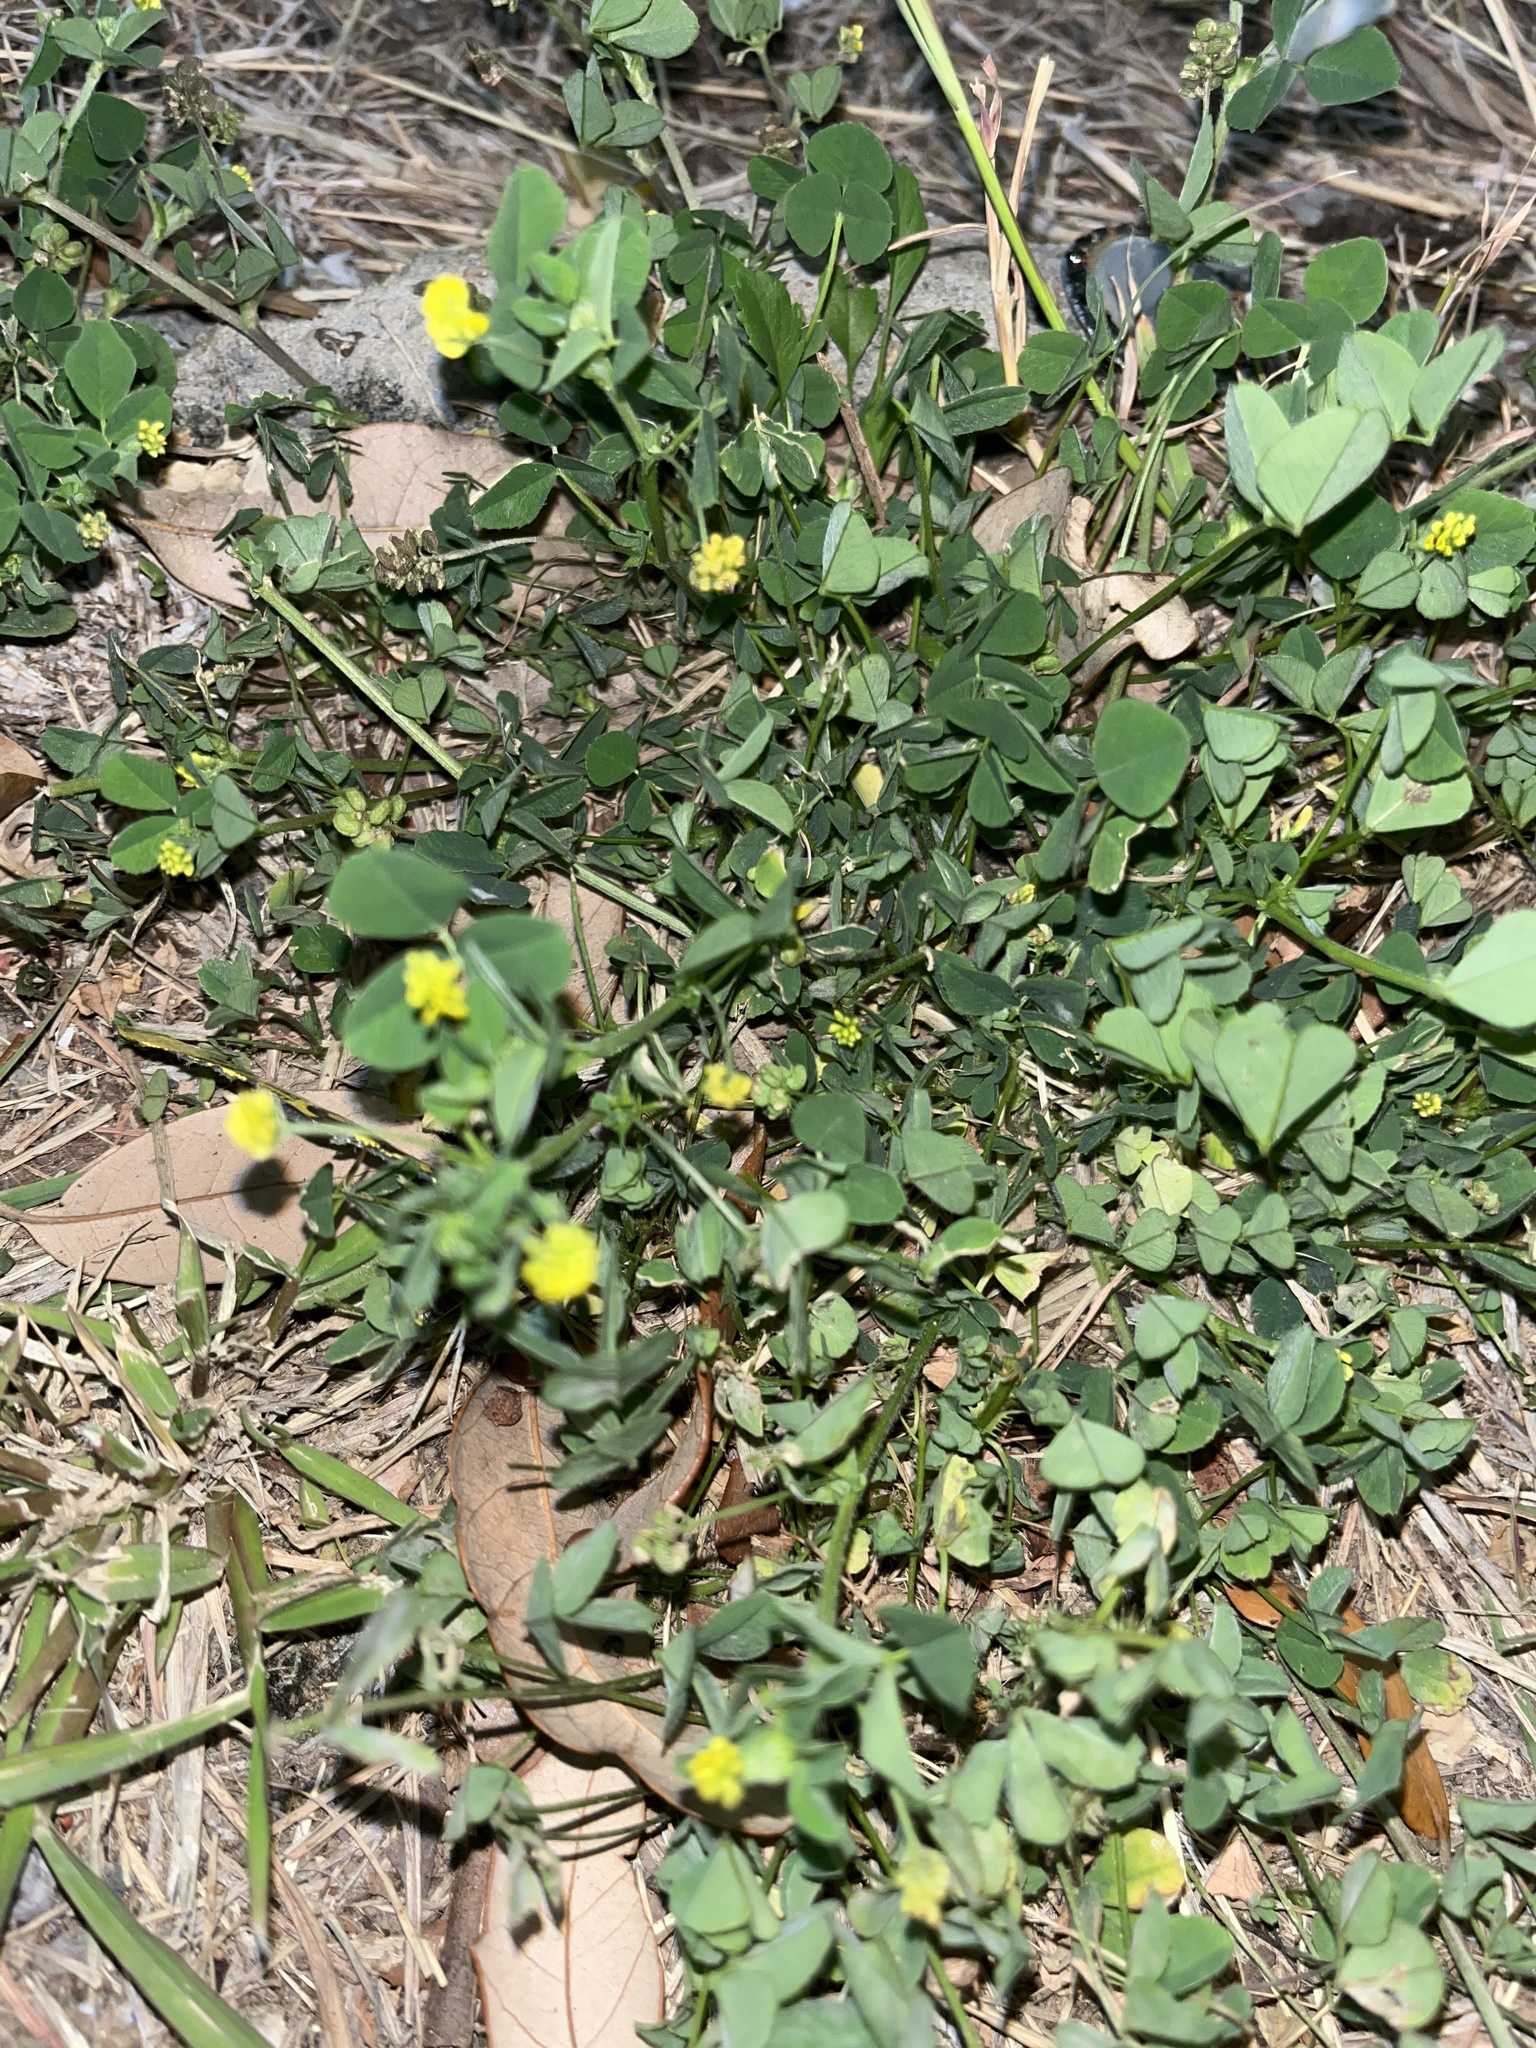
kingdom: Plantae
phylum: Tracheophyta
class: Magnoliopsida
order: Fabales
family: Fabaceae
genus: Medicago
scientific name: Medicago lupulina
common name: Black medick
